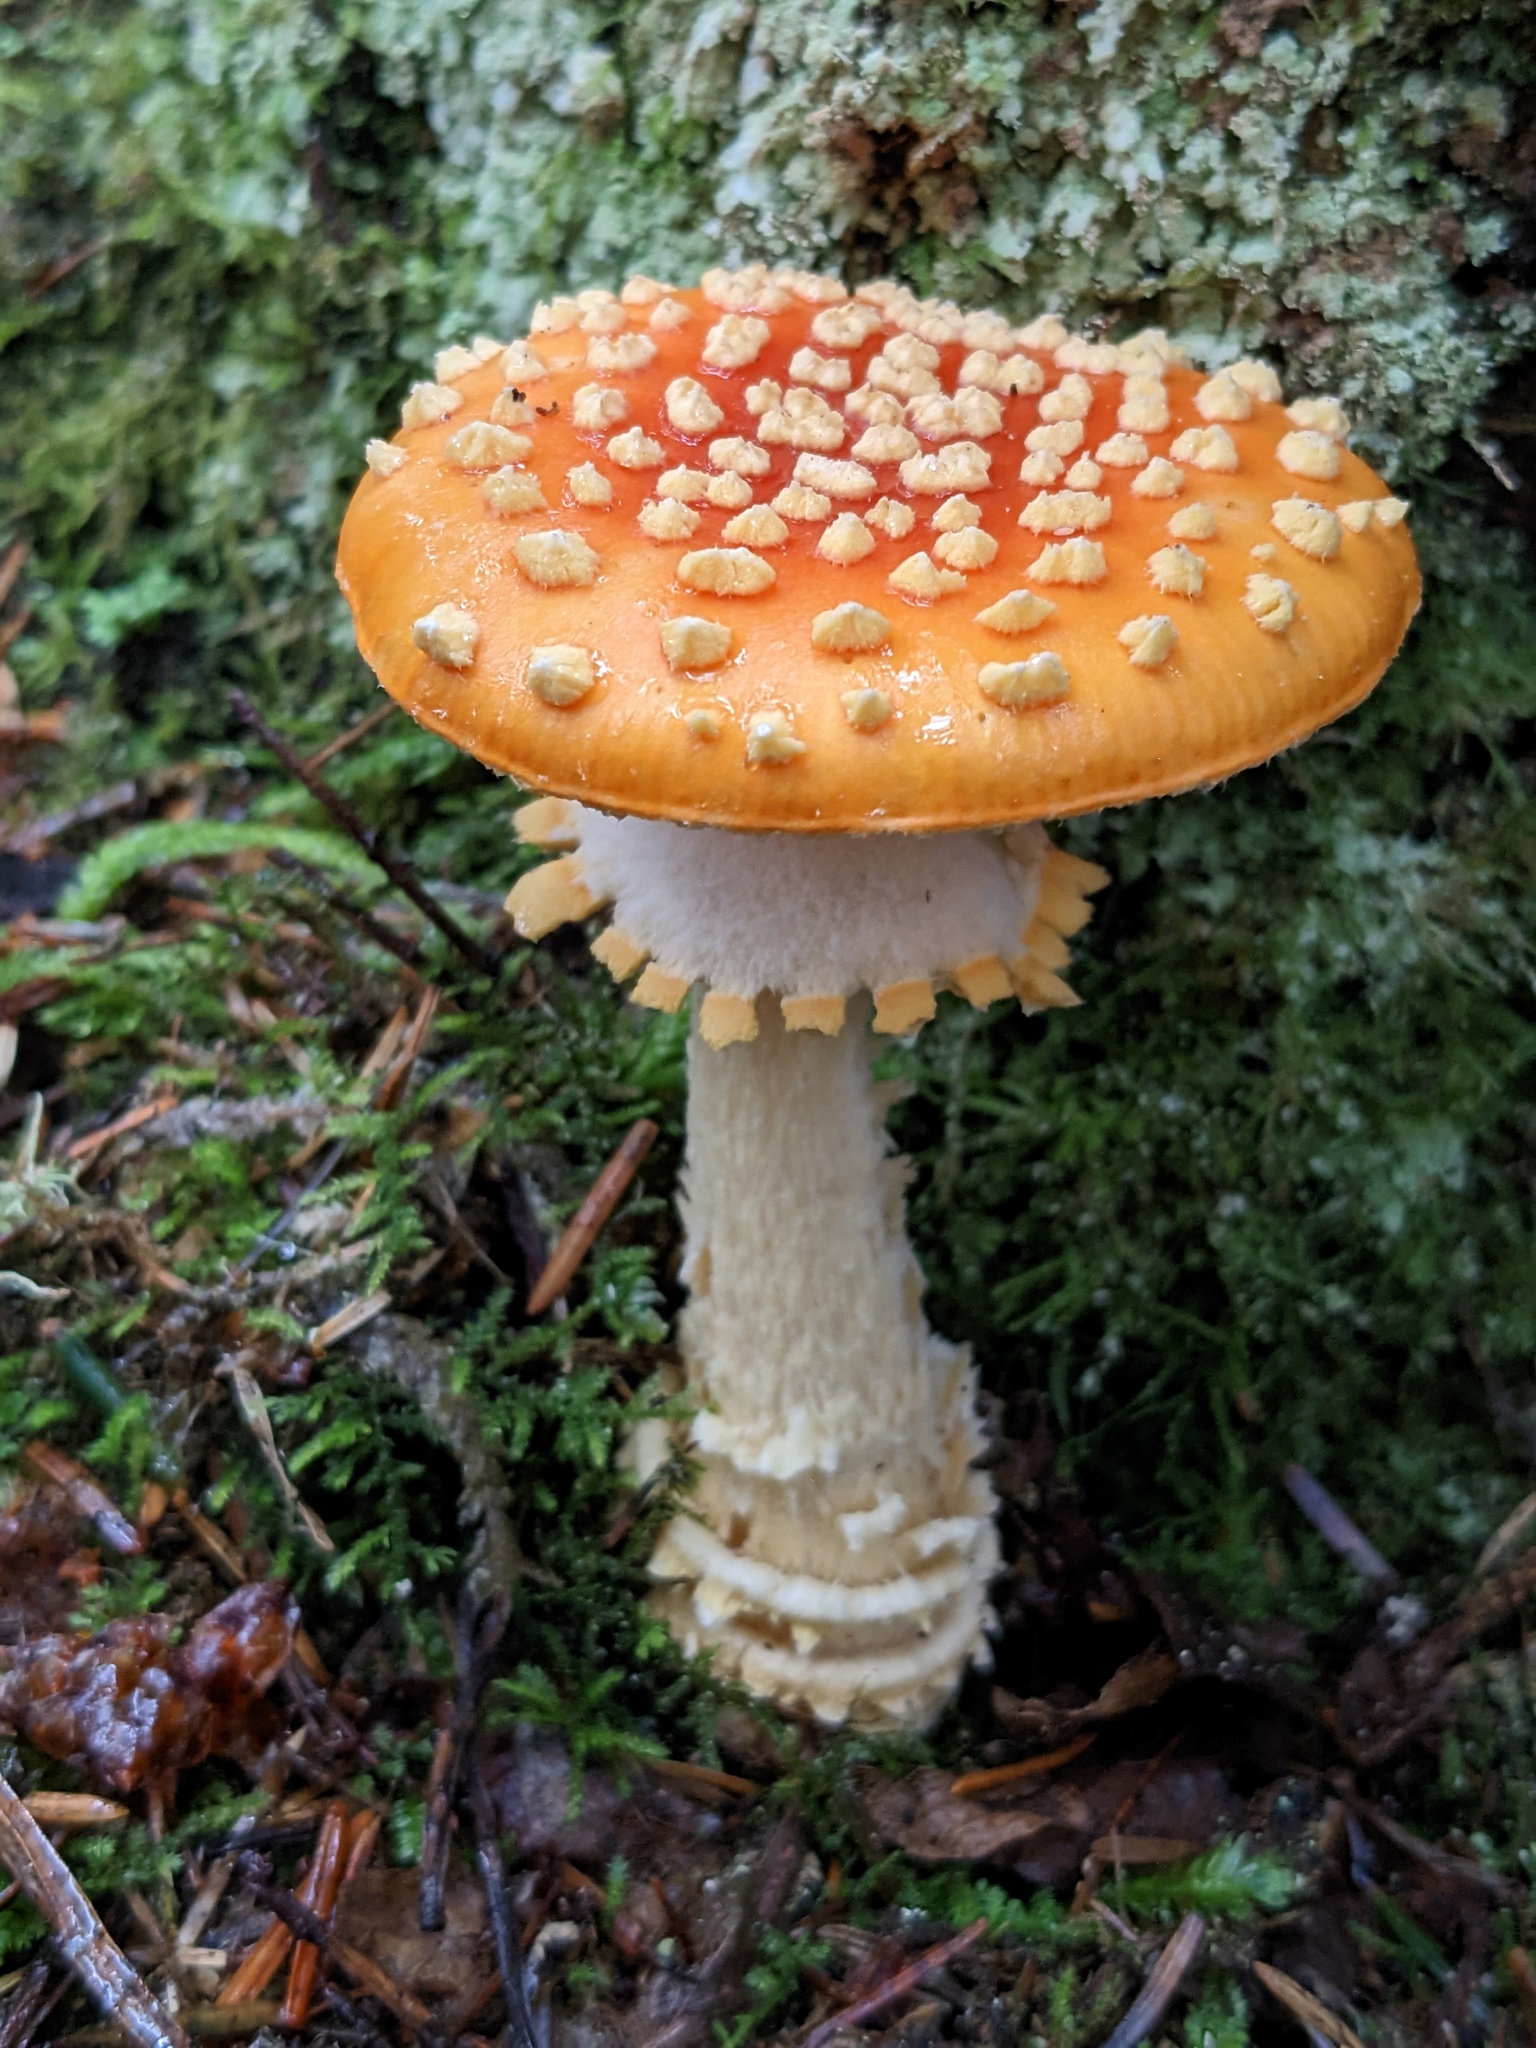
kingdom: Fungi
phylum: Basidiomycota
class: Agaricomycetes
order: Agaricales
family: Amanitaceae
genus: Amanita
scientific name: Amanita muscaria
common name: Fly agaric
